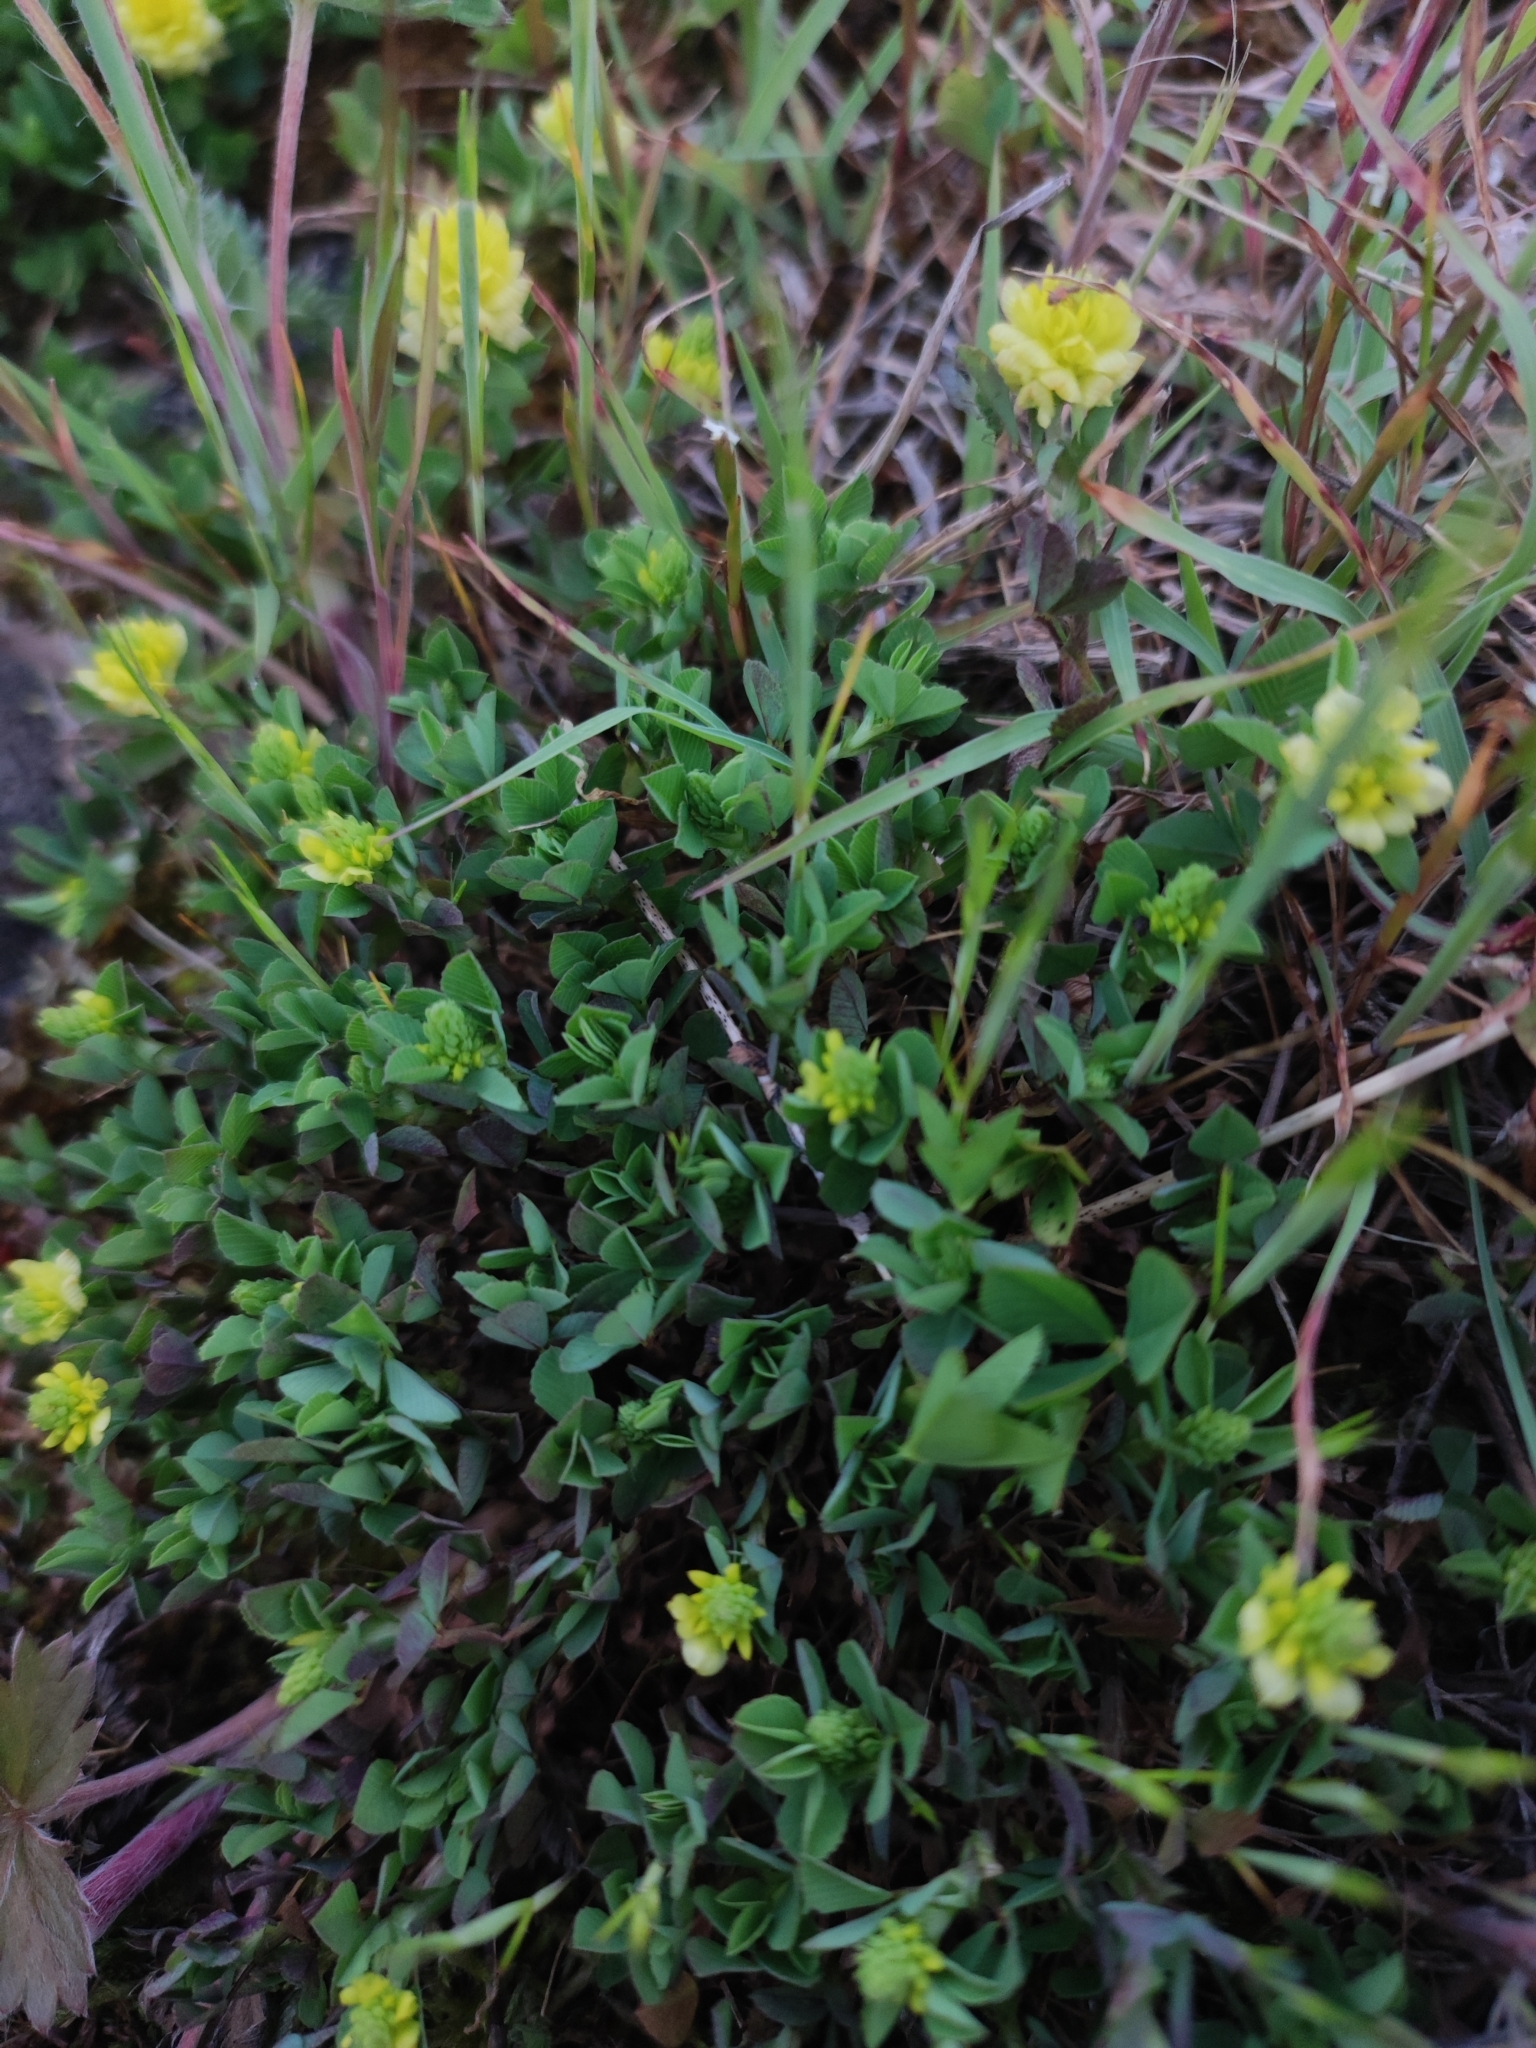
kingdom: Plantae
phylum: Tracheophyta
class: Magnoliopsida
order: Fabales
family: Fabaceae
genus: Trifolium
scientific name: Trifolium campestre
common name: Field clover
